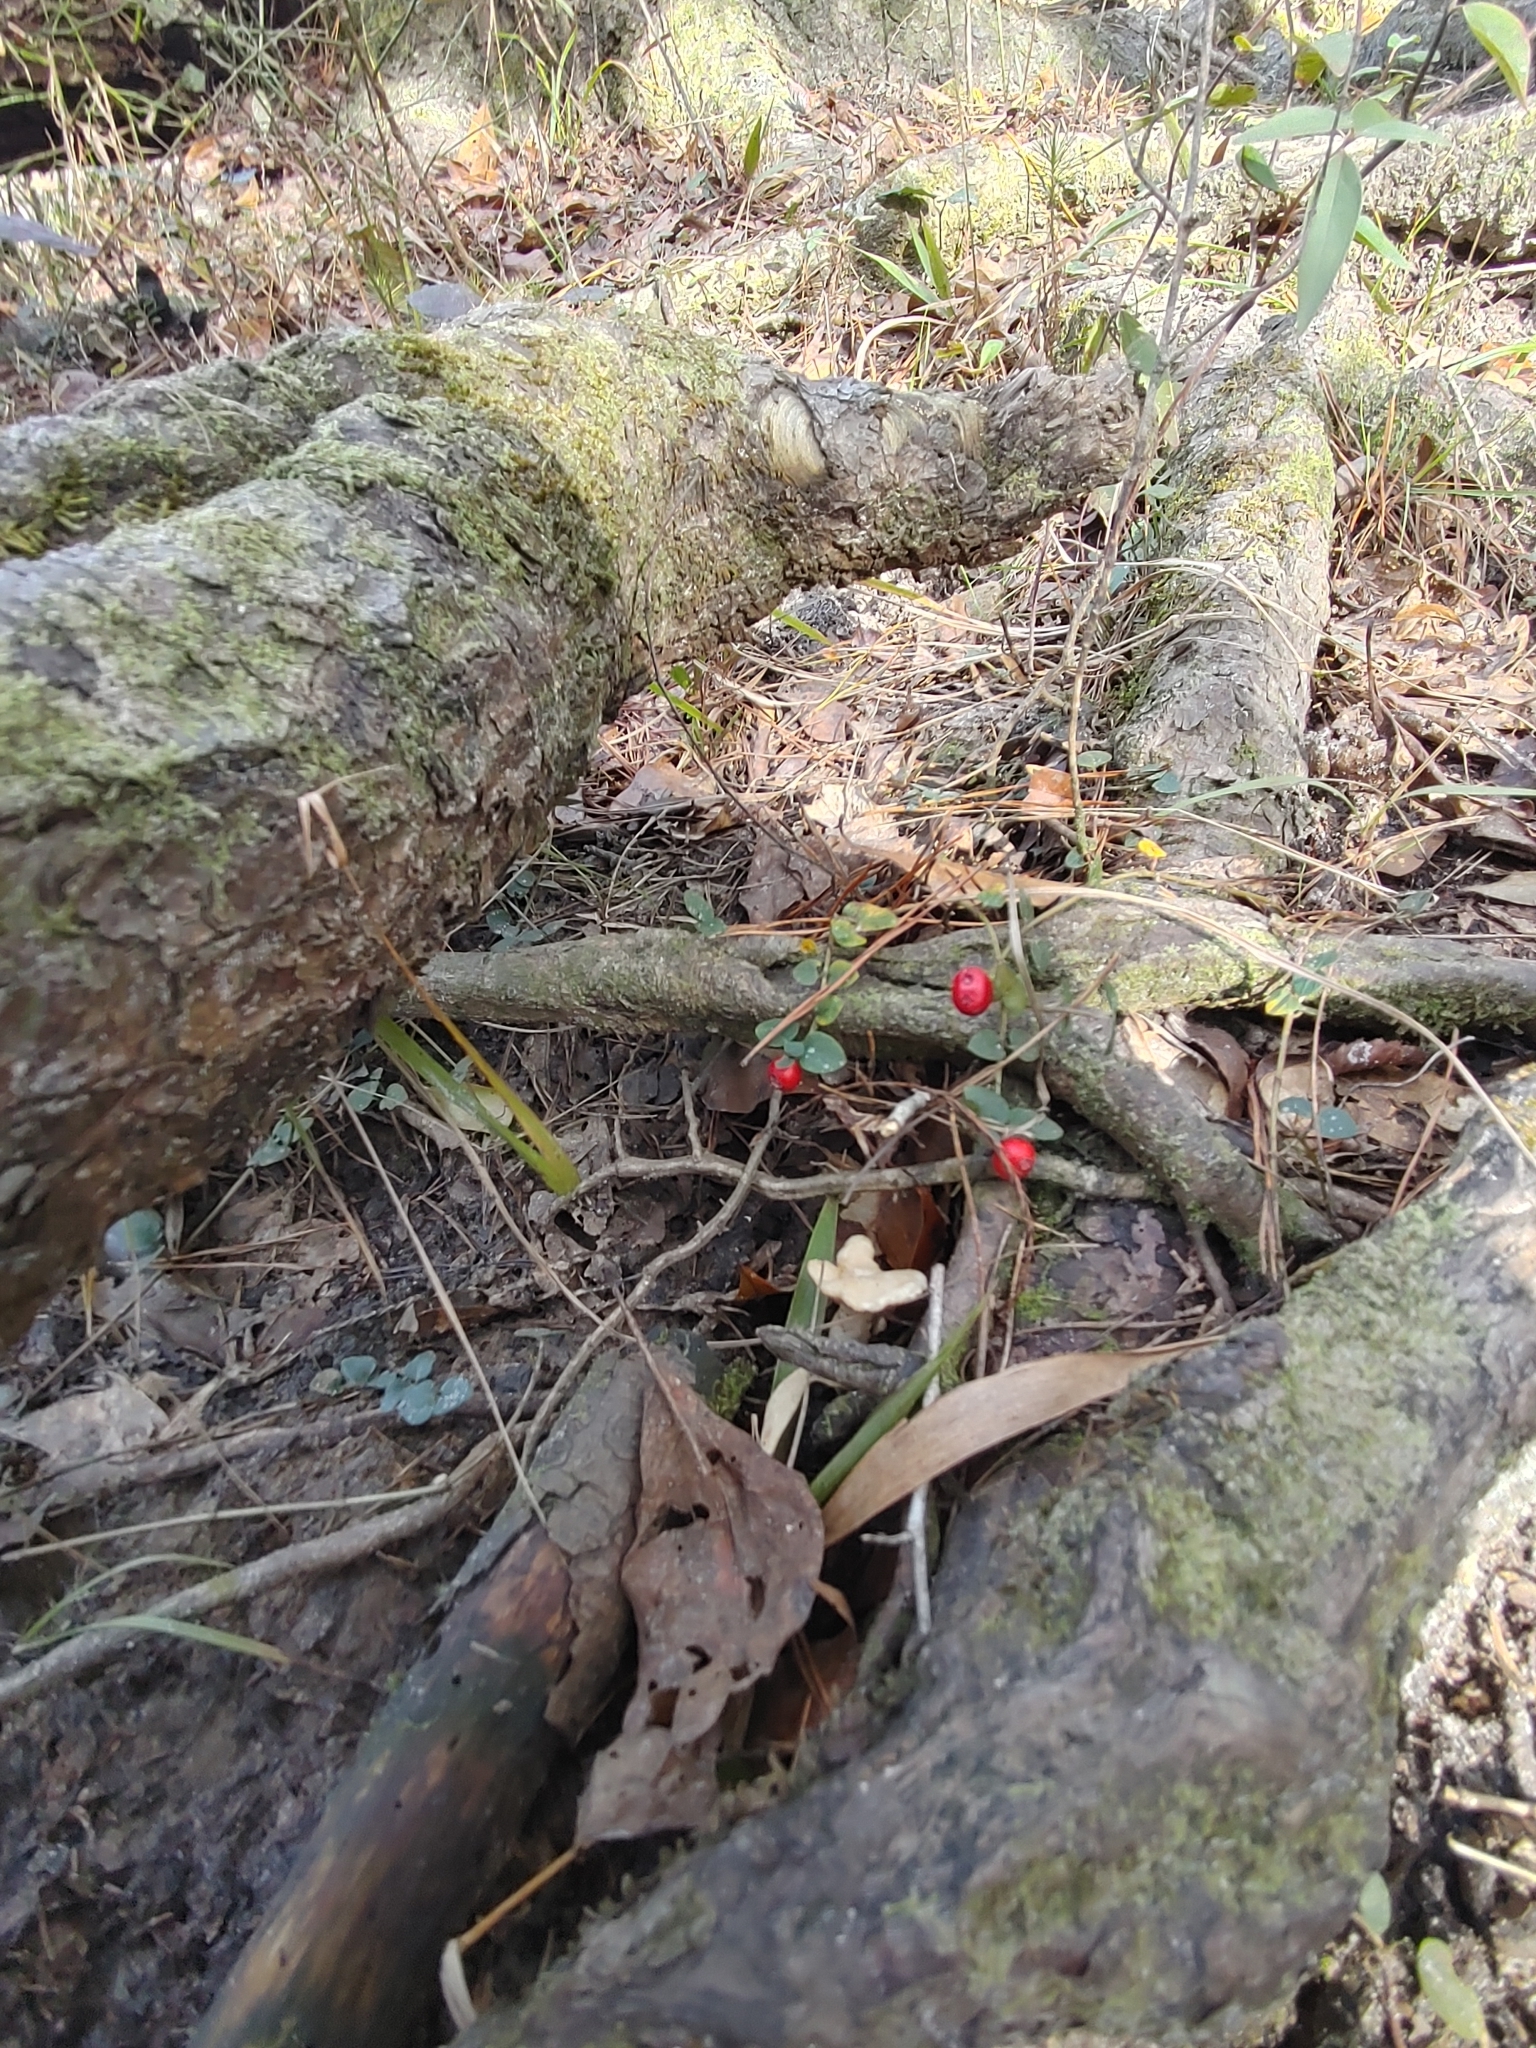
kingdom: Plantae
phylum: Tracheophyta
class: Magnoliopsida
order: Gentianales
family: Rubiaceae
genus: Mitchella
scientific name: Mitchella repens
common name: Partridge-berry
